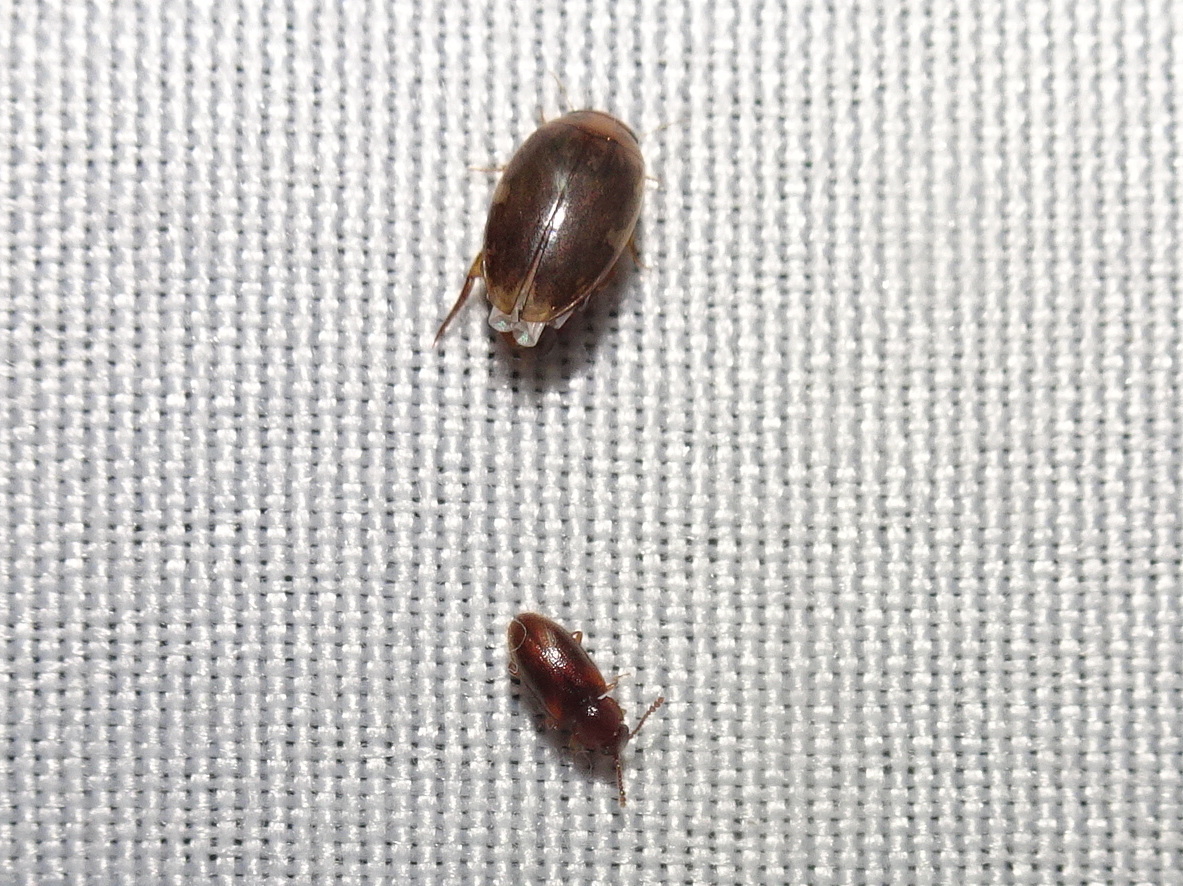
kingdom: Animalia
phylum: Arthropoda
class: Insecta
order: Coleoptera
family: Dytiscidae
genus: Laccophilus
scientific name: Laccophilus proximus
